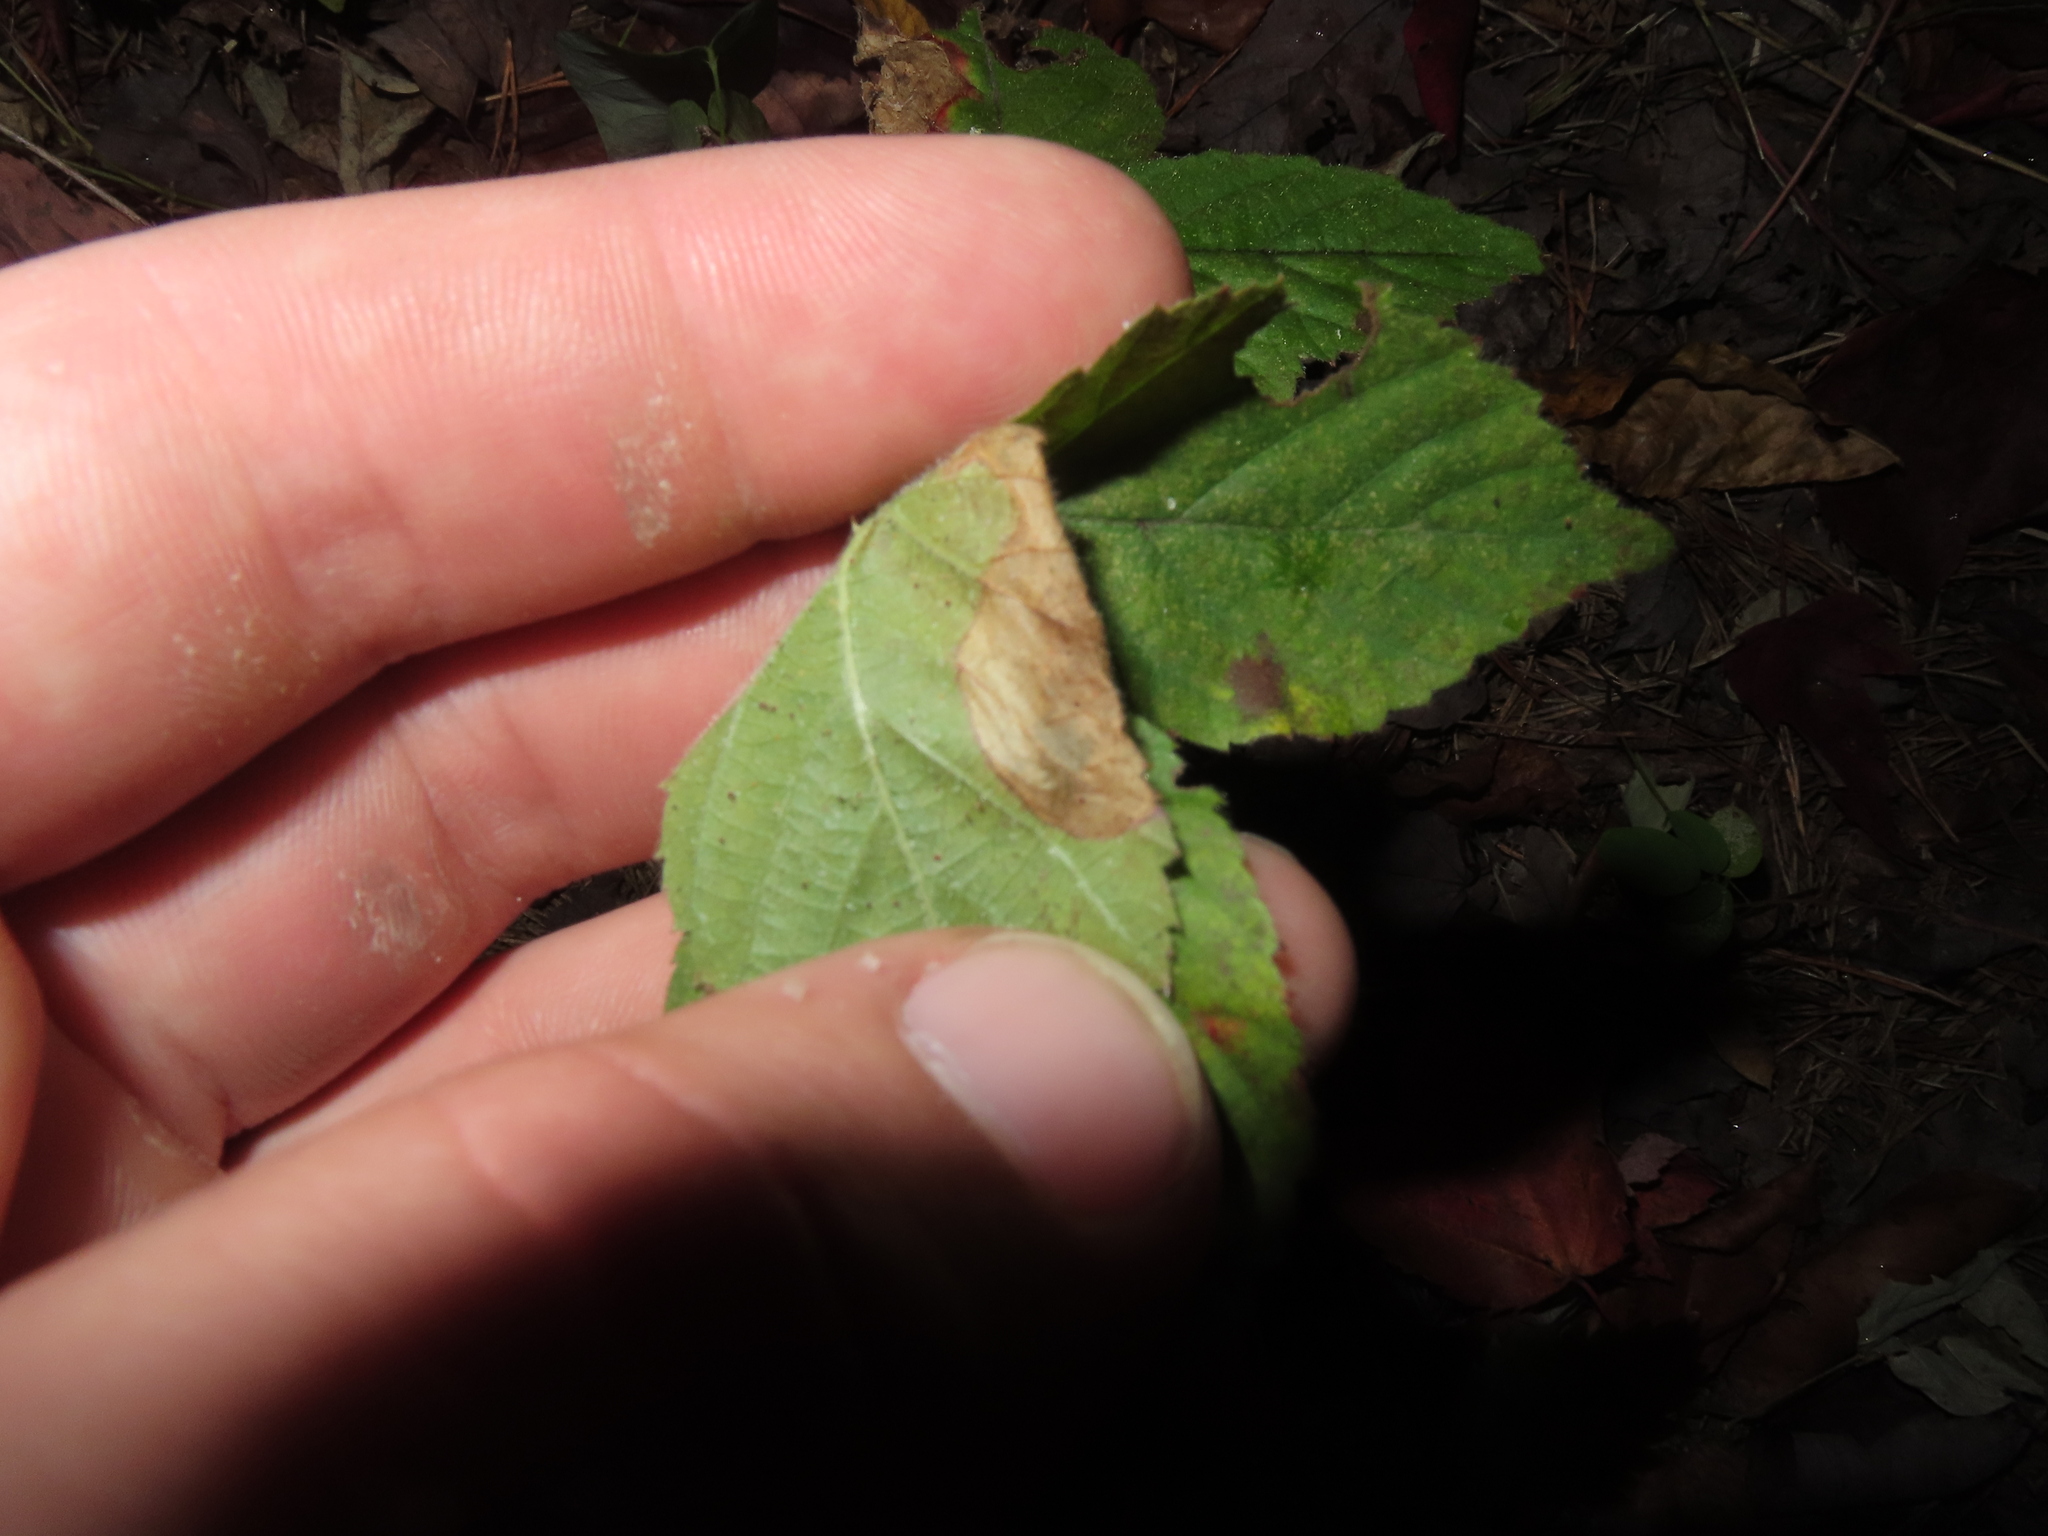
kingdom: Animalia
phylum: Arthropoda
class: Insecta
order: Hymenoptera
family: Tenthredinidae
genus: Metallus
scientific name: Metallus rohweri
